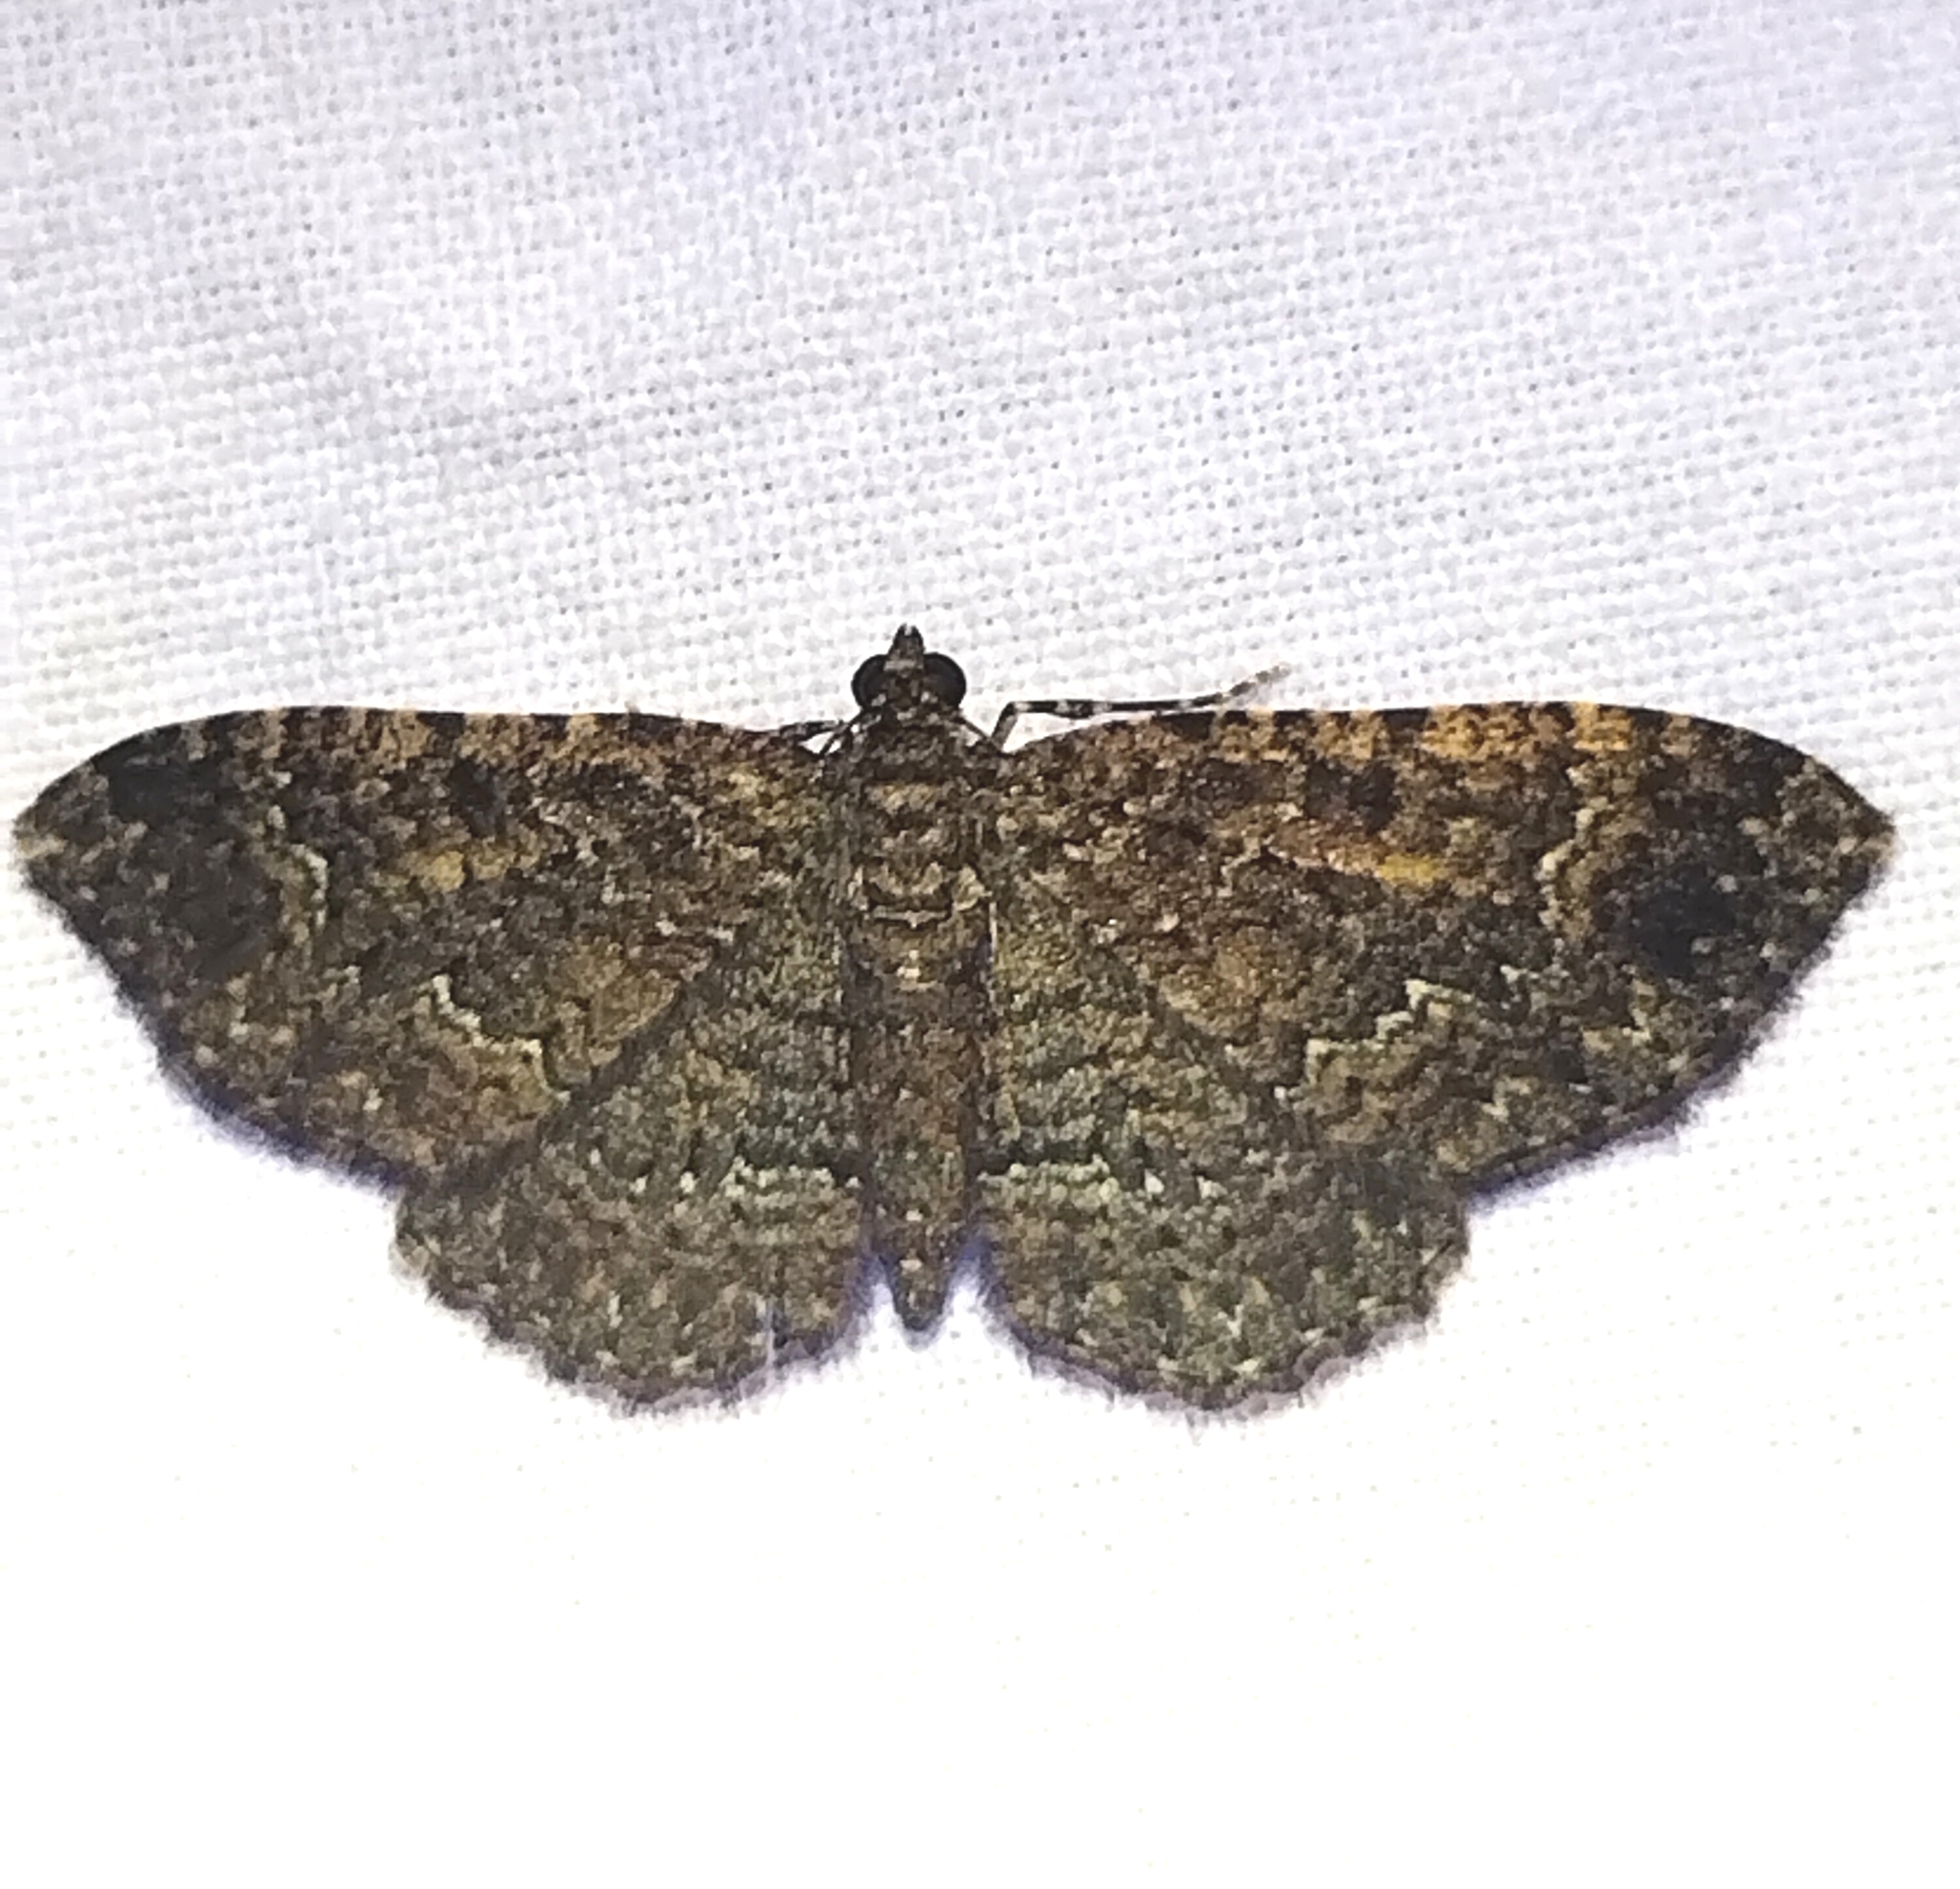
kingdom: Animalia
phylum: Arthropoda
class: Insecta
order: Lepidoptera
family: Geometridae
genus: Disclisioprocta
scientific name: Disclisioprocta stellata
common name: Somber carpet
